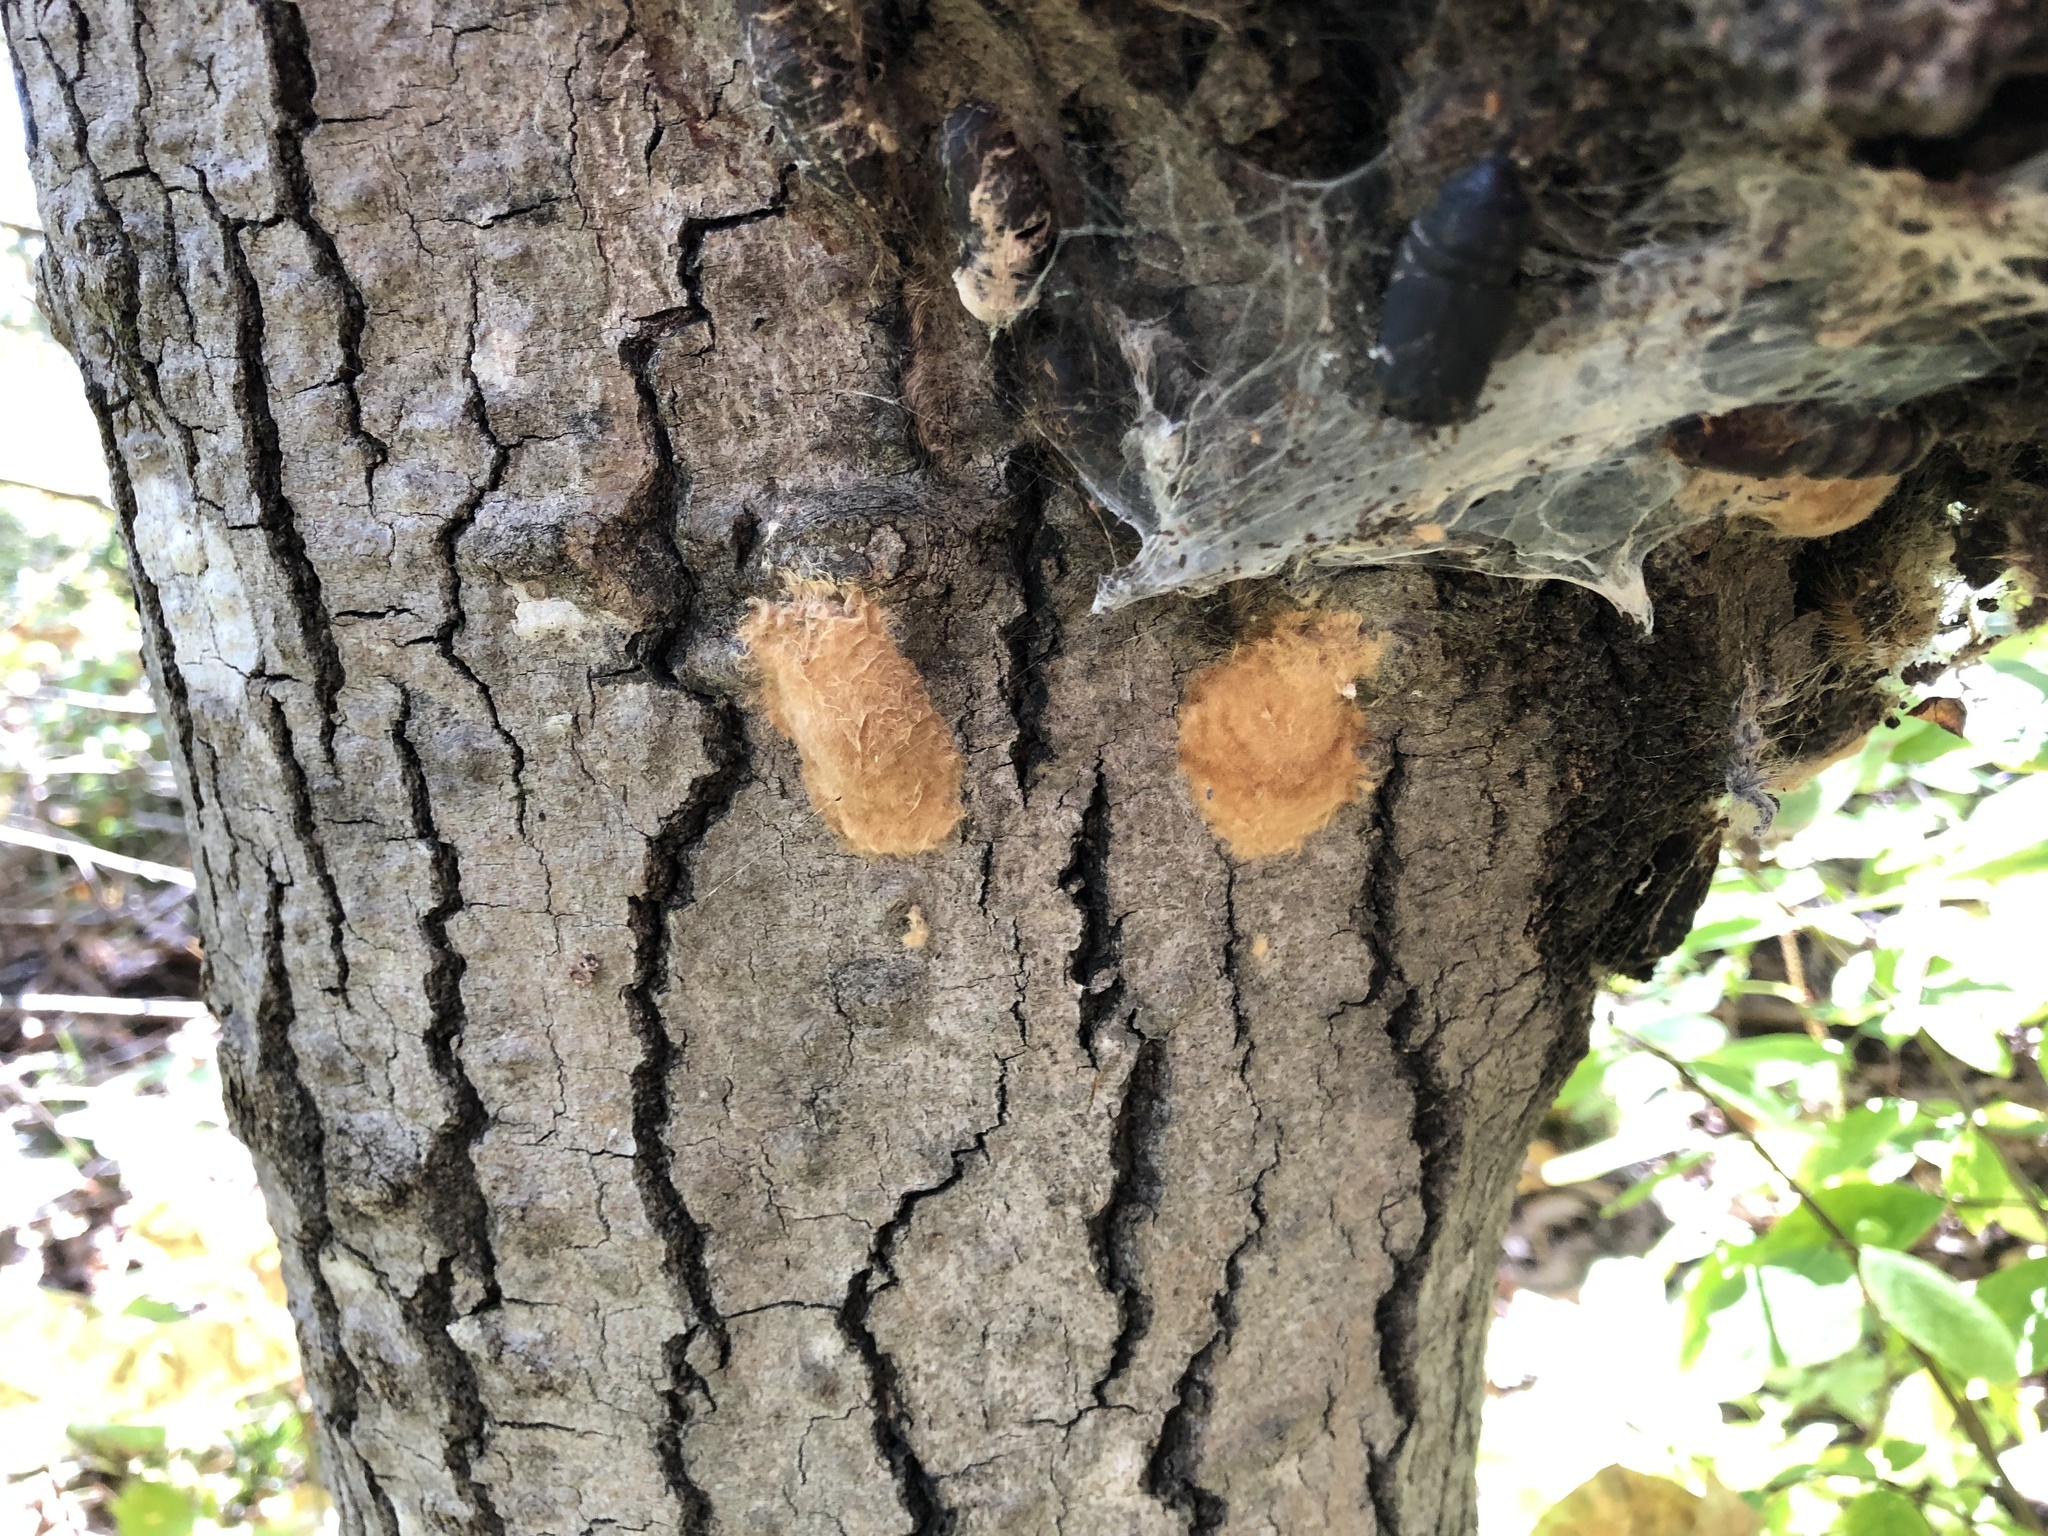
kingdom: Animalia
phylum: Arthropoda
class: Insecta
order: Lepidoptera
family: Erebidae
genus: Lymantria
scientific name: Lymantria dispar
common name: Gypsy moth
